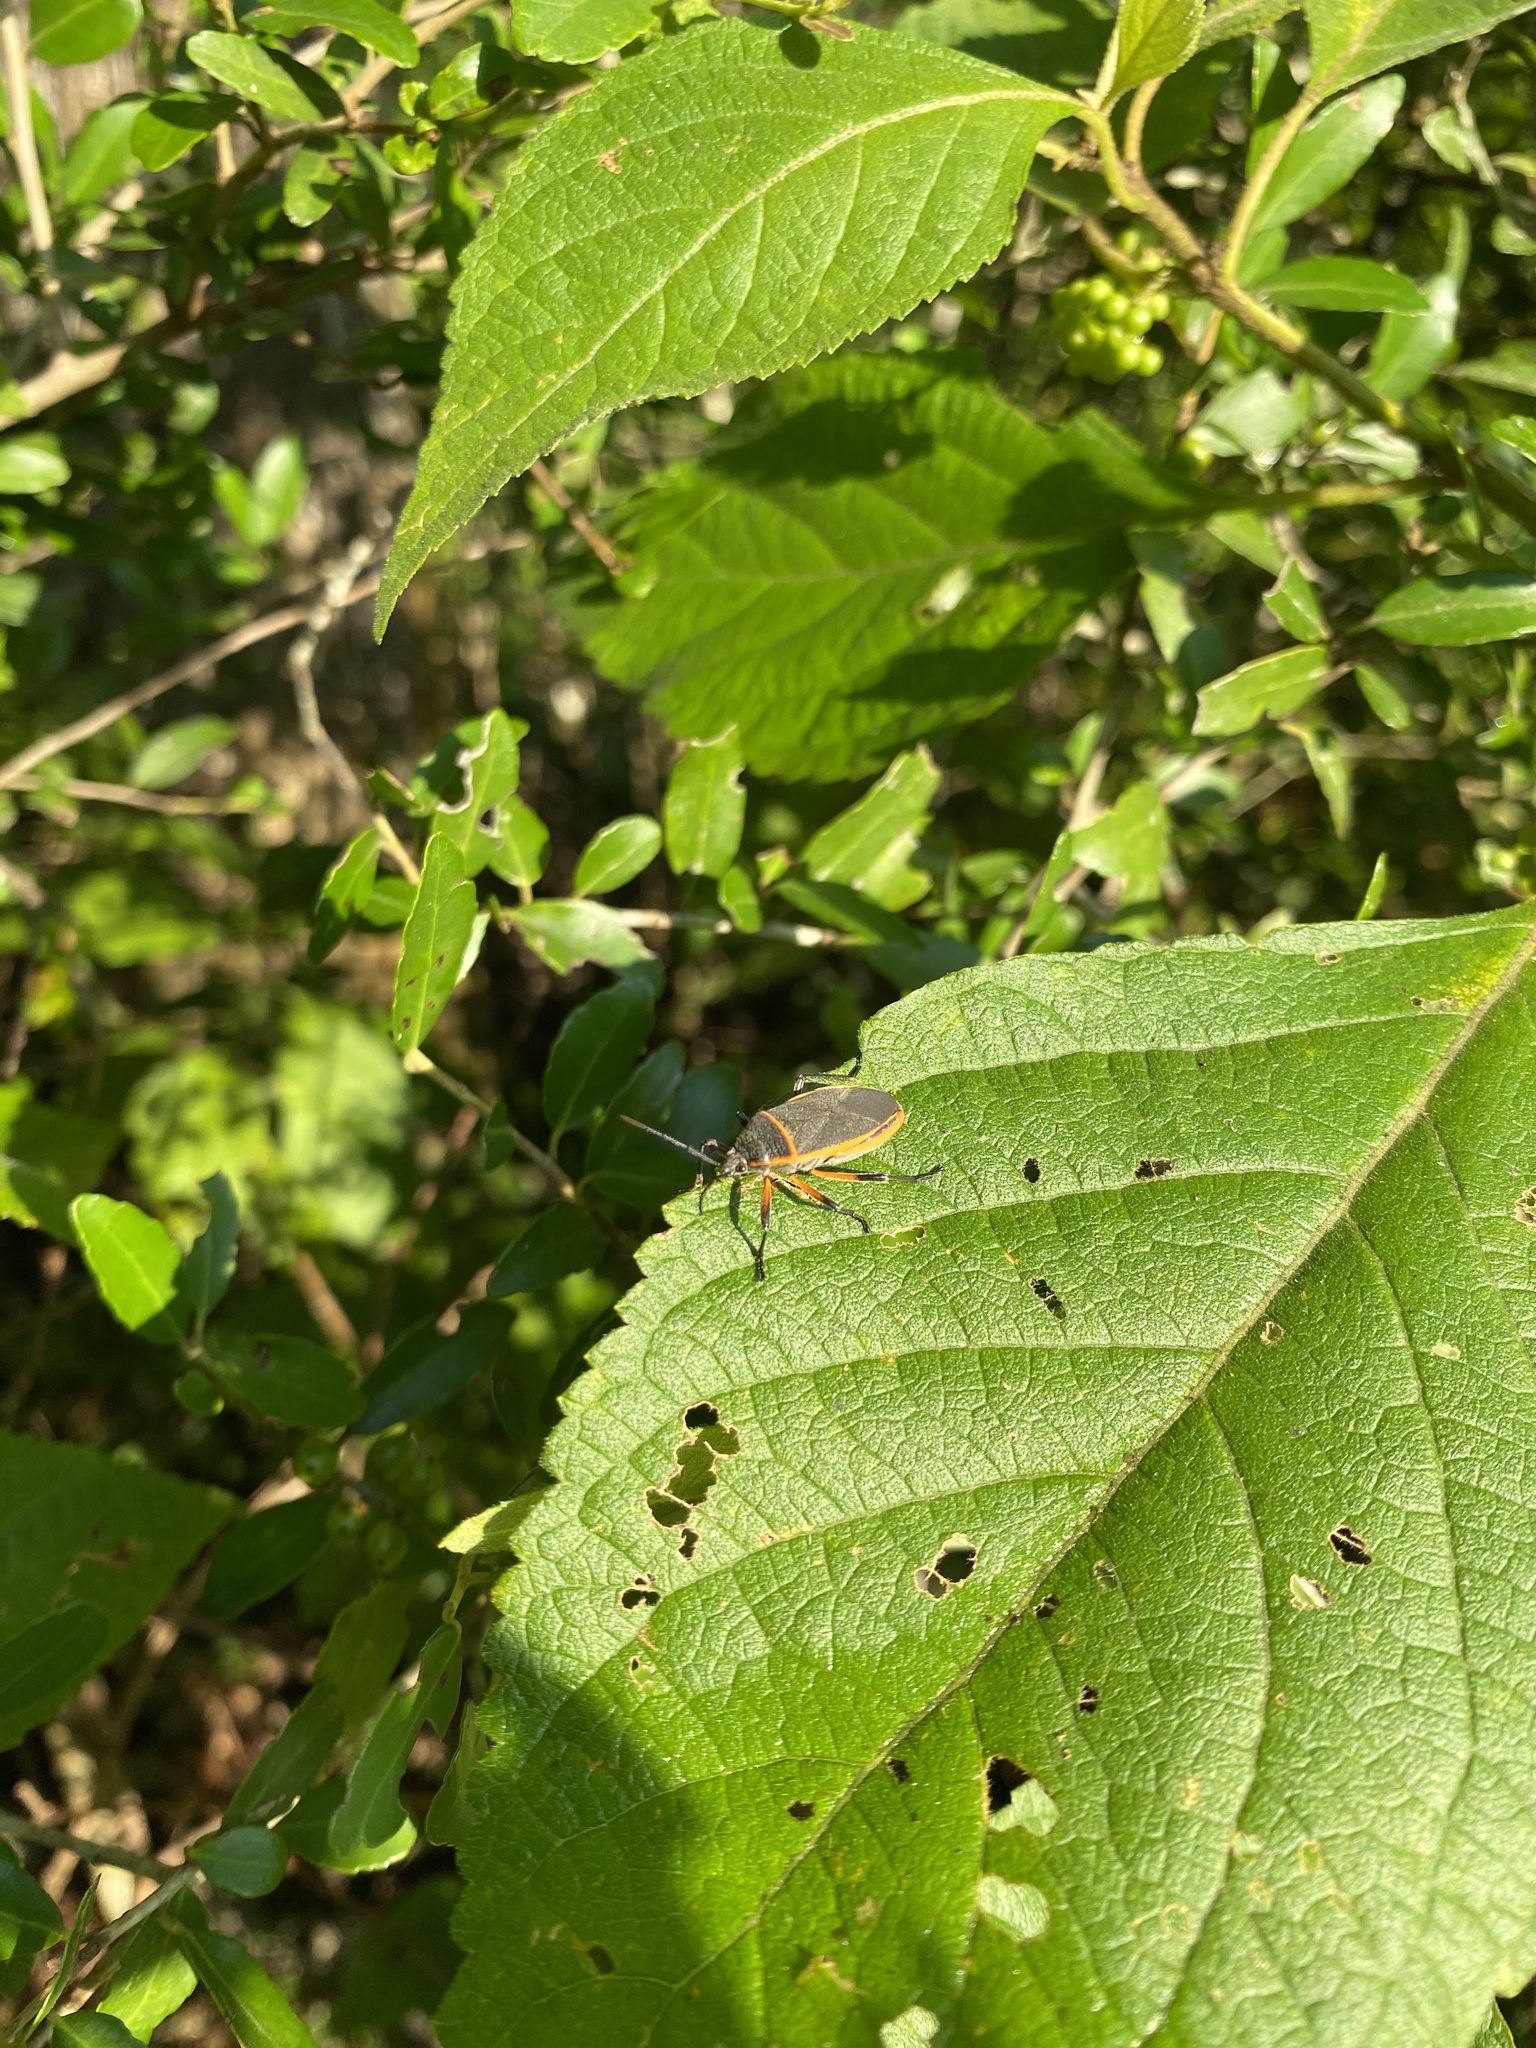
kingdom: Animalia
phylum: Arthropoda
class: Insecta
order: Hemiptera
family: Largidae
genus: Largus
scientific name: Largus succinctus
